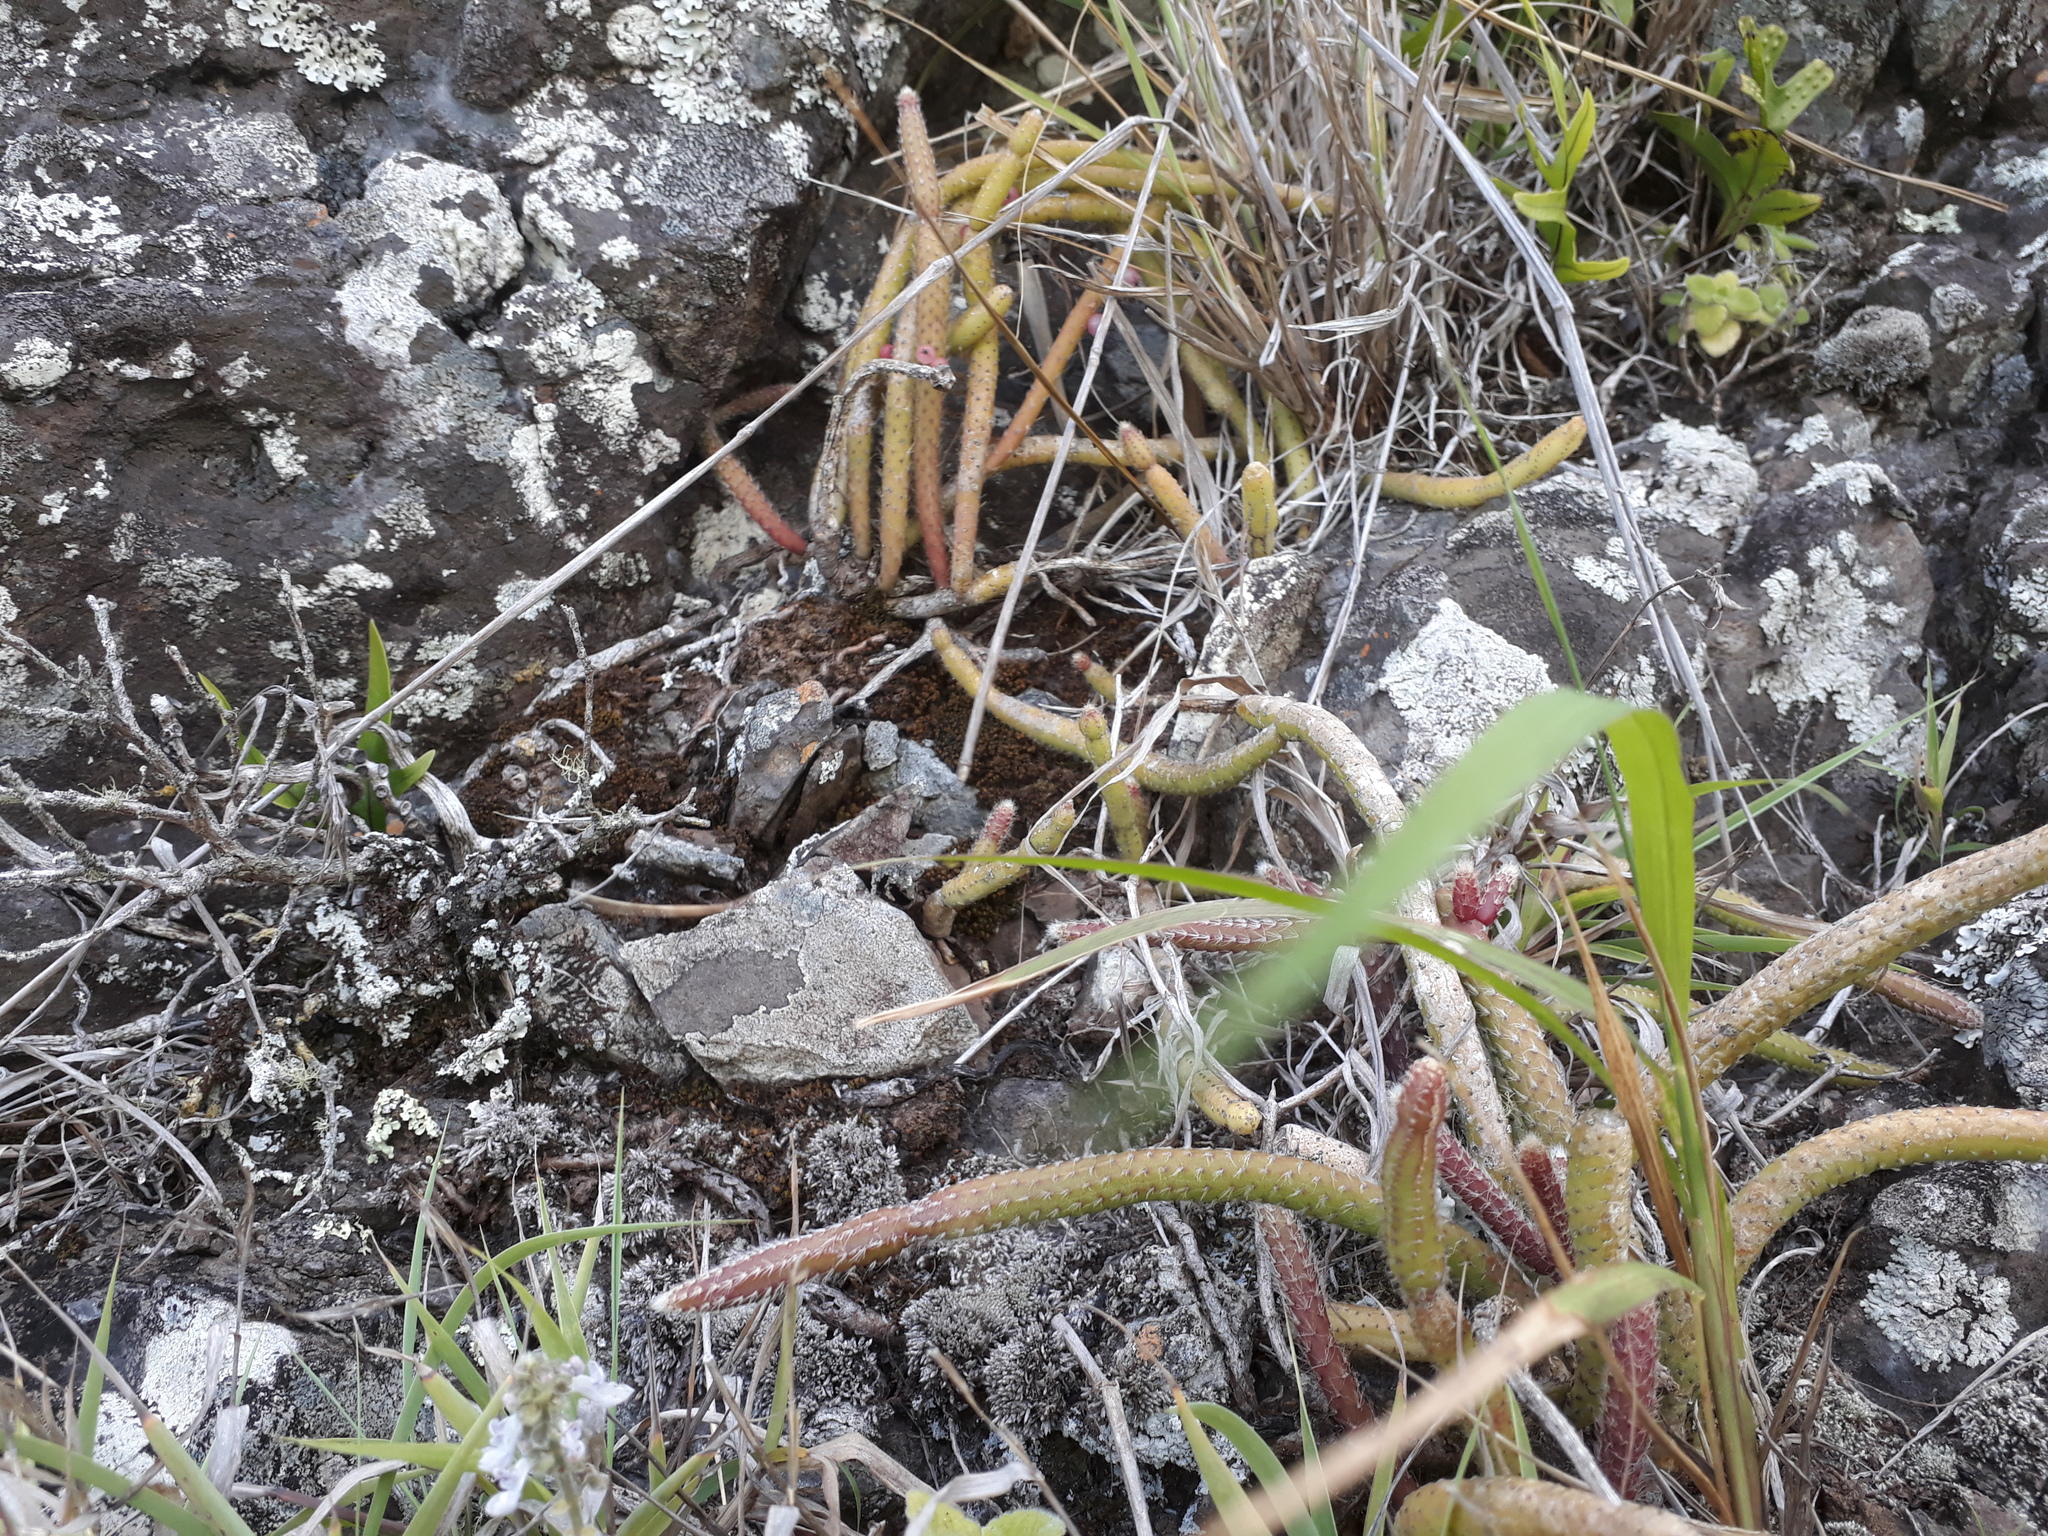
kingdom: Plantae
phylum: Tracheophyta
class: Magnoliopsida
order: Caryophyllales
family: Cactaceae
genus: Rhipsalis
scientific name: Rhipsalis baccifera
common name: Mistletoe cactus
